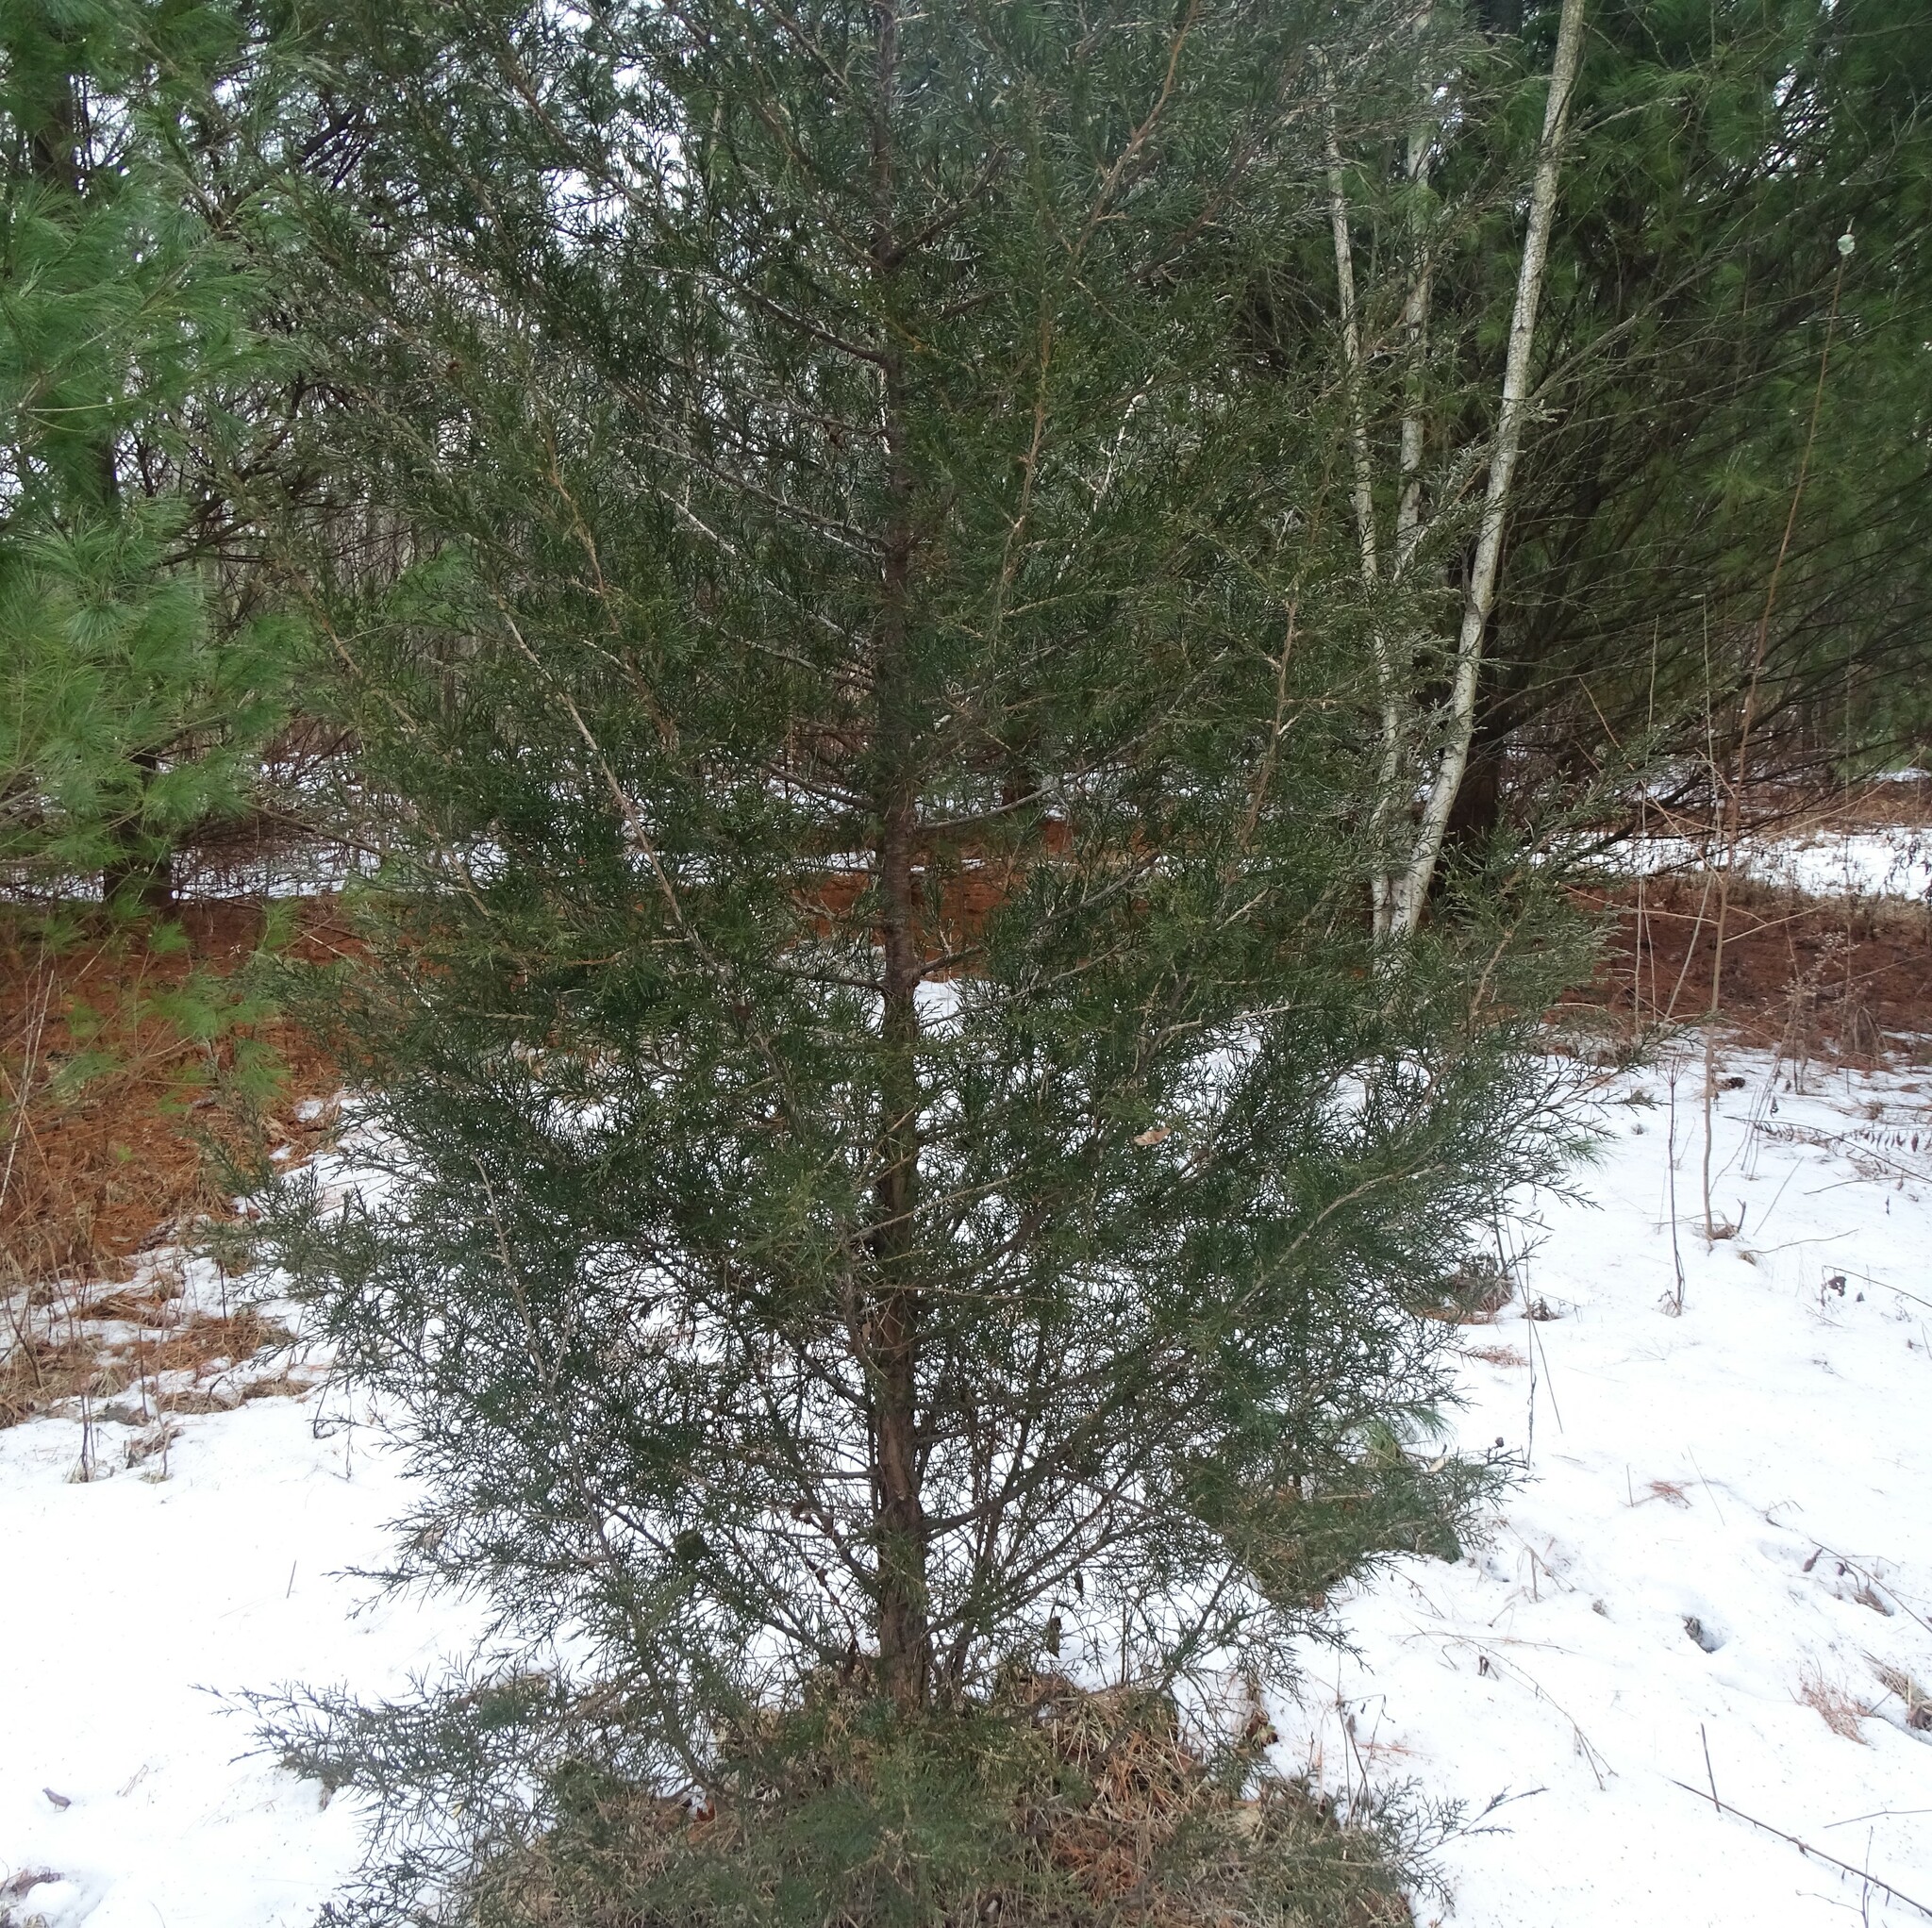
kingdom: Plantae
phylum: Tracheophyta
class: Pinopsida
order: Pinales
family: Cupressaceae
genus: Juniperus
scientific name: Juniperus virginiana
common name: Red juniper
